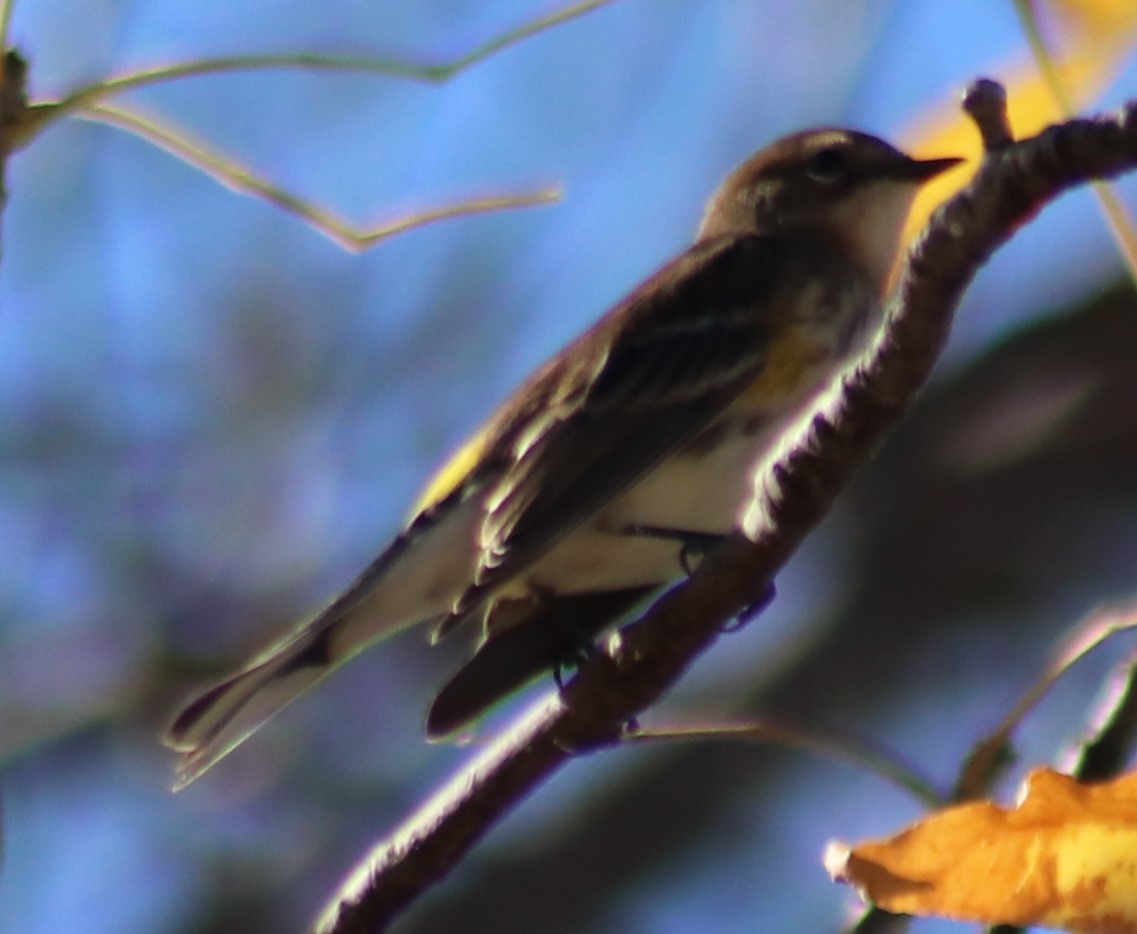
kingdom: Animalia
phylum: Chordata
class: Aves
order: Passeriformes
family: Parulidae
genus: Setophaga
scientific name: Setophaga coronata
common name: Myrtle warbler
